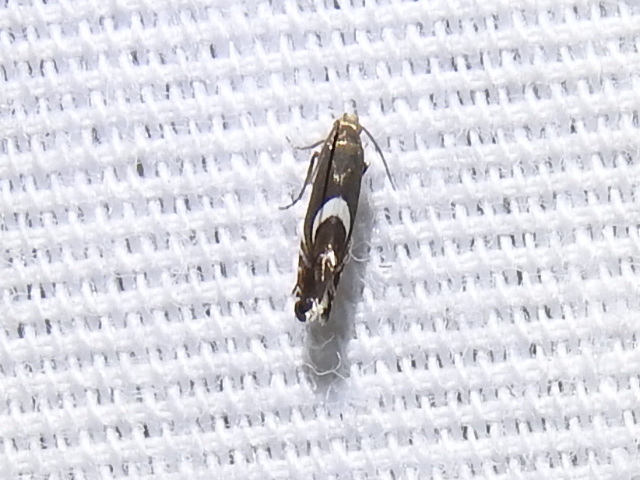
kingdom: Animalia
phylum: Arthropoda
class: Insecta
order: Lepidoptera
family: Glyphipterigidae
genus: Glyphipterix
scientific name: Glyphipterix Diploschizia impigritella
